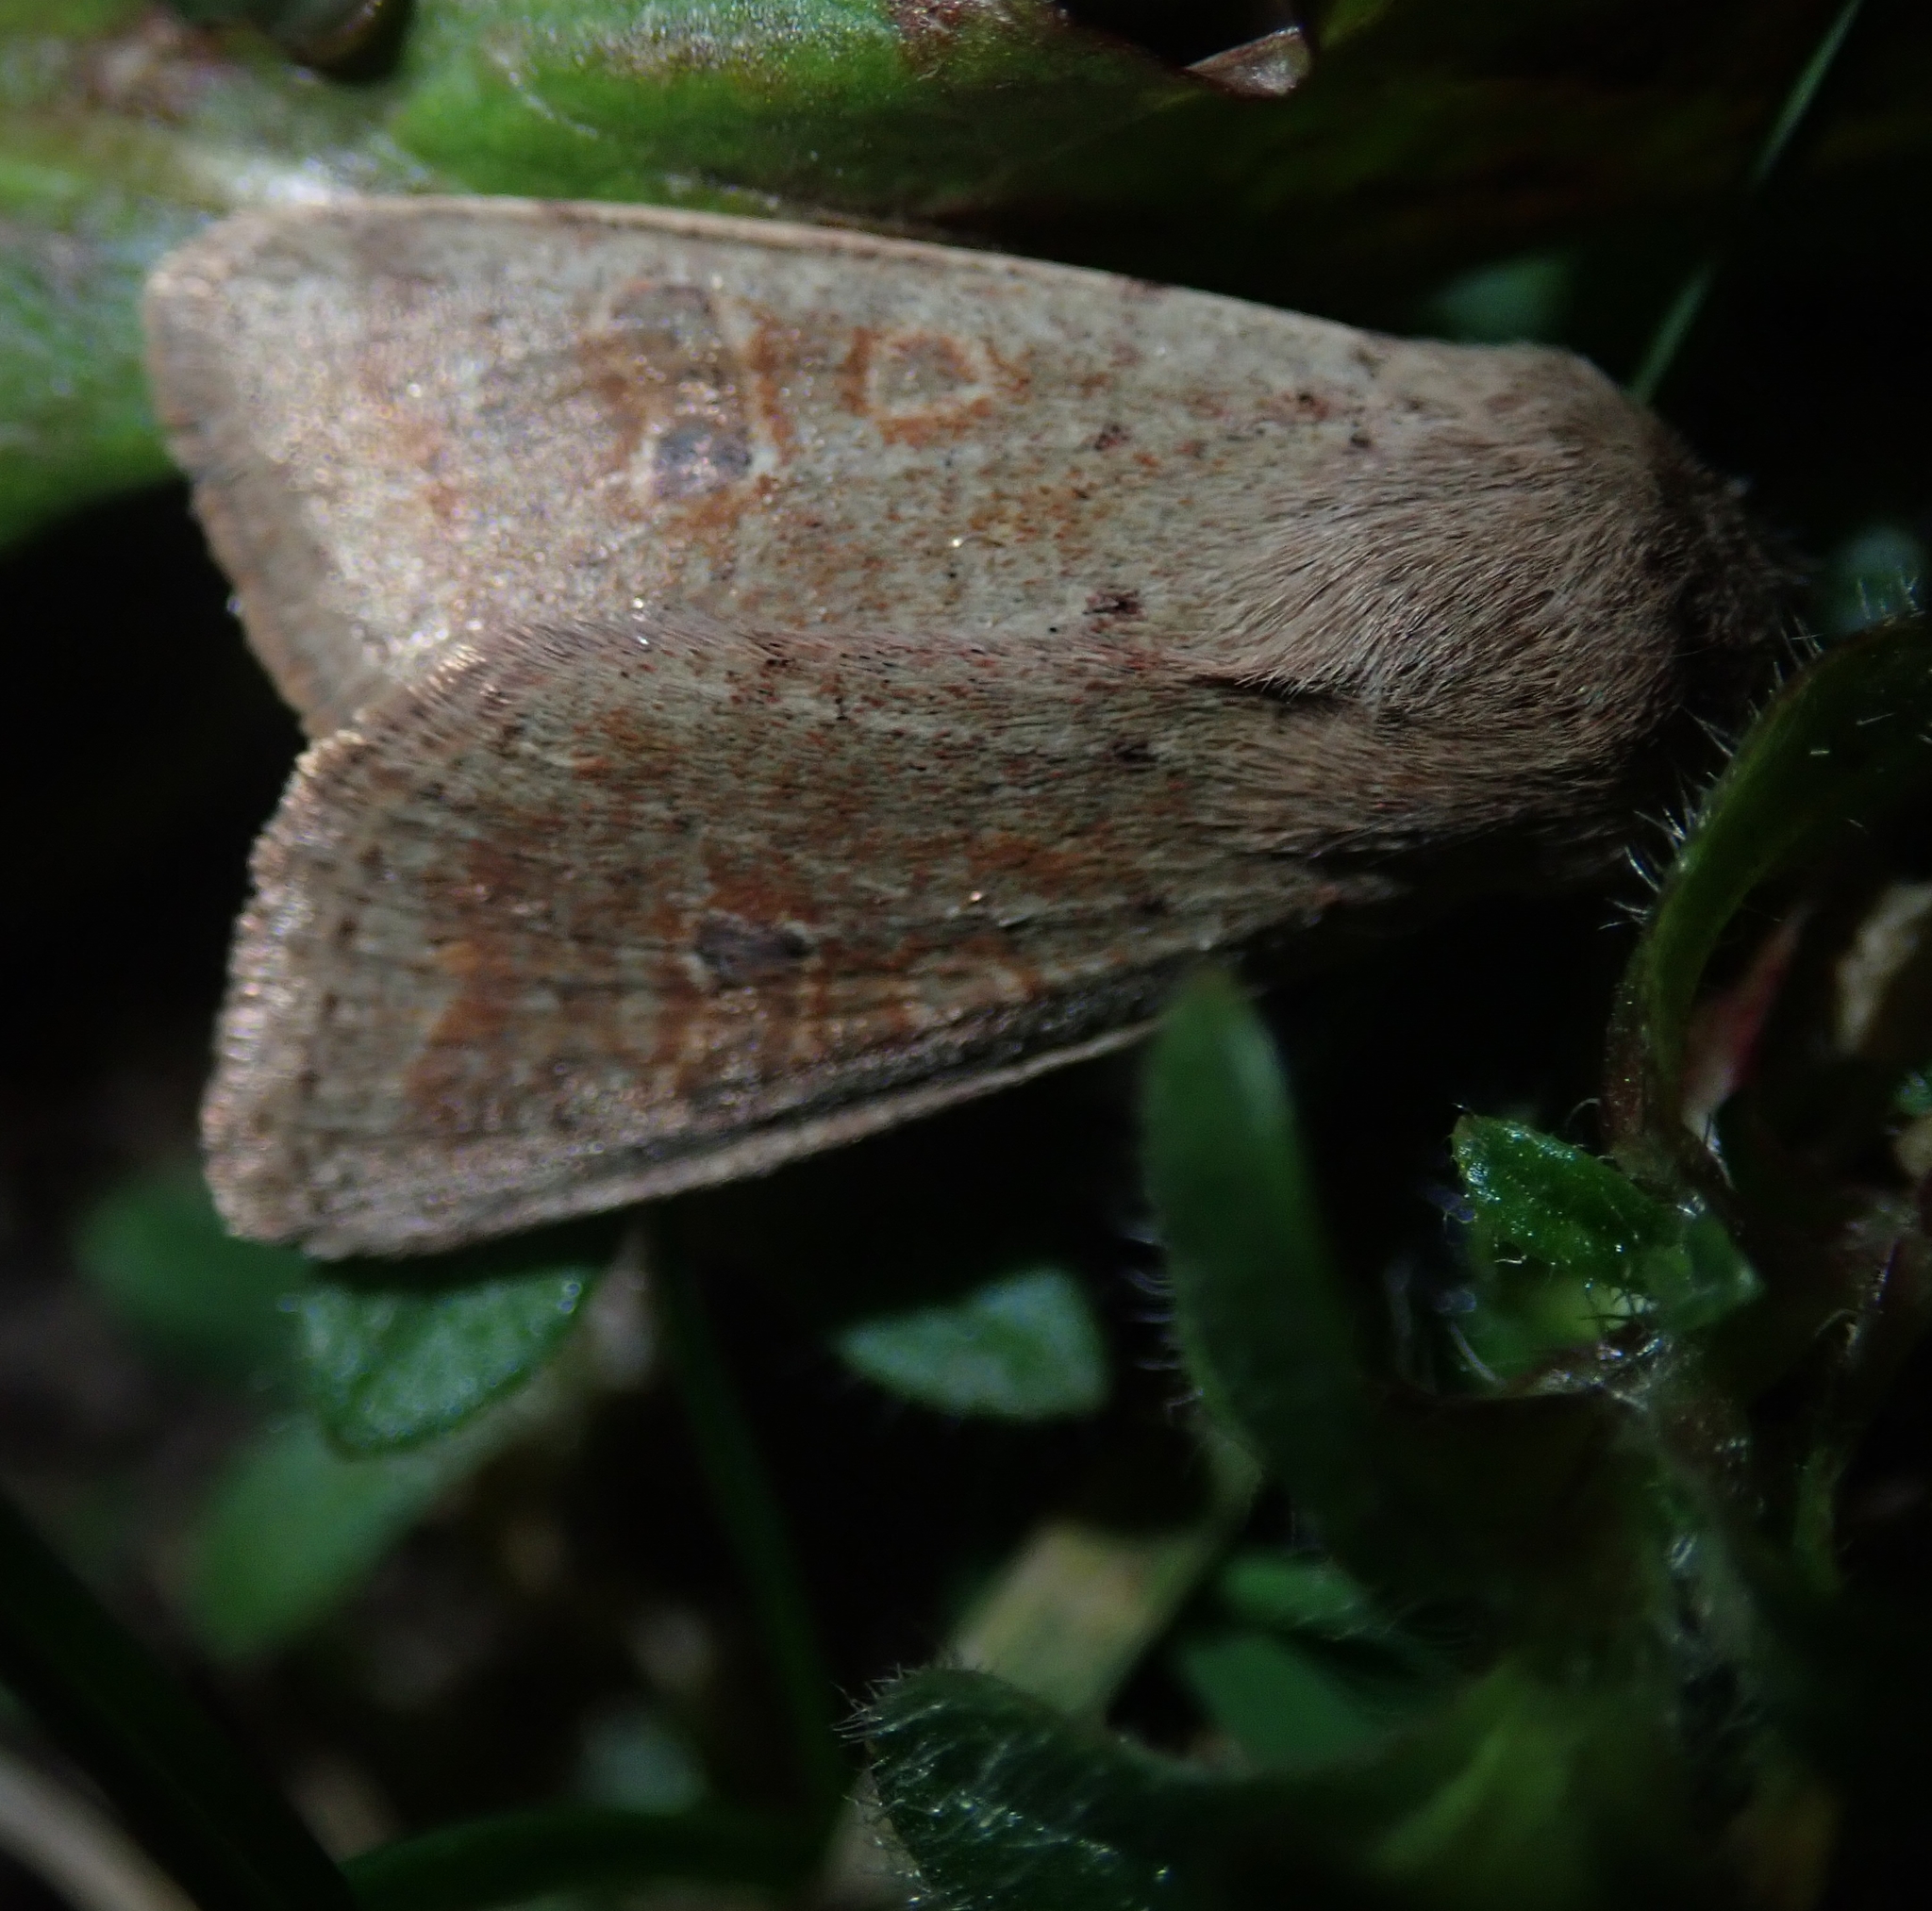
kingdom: Animalia
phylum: Arthropoda
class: Insecta
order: Lepidoptera
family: Noctuidae
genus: Orthosia
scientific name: Orthosia cruda
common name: Small quaker
